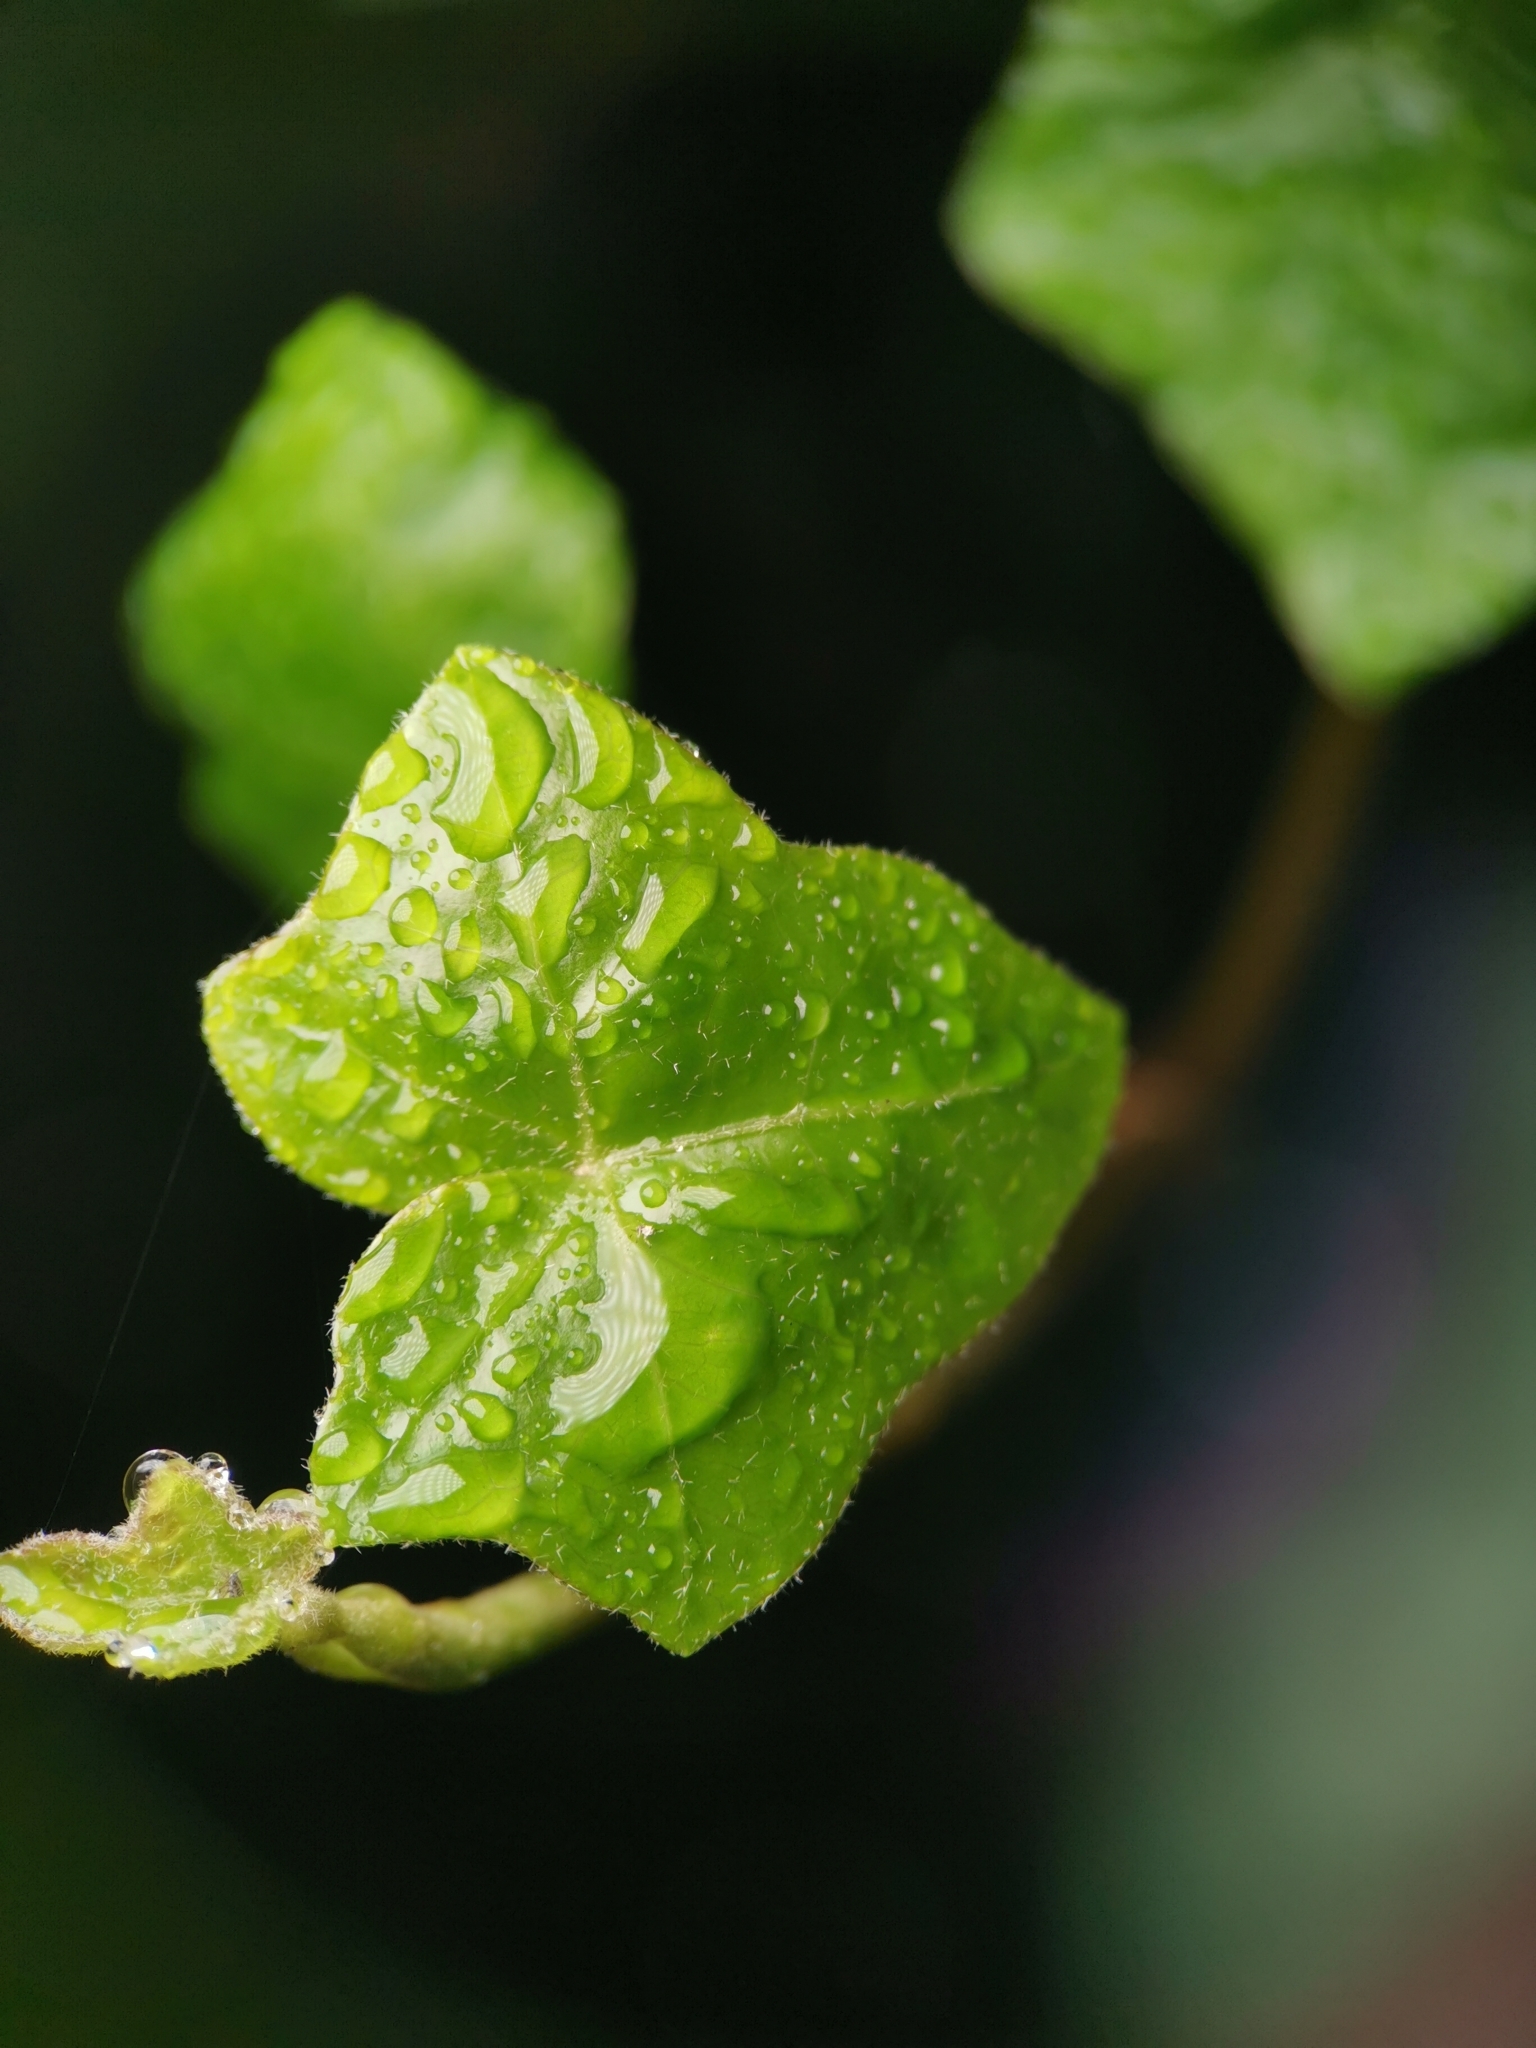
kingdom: Plantae
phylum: Tracheophyta
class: Magnoliopsida
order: Apiales
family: Araliaceae
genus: Hedera
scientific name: Hedera helix
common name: Ivy
